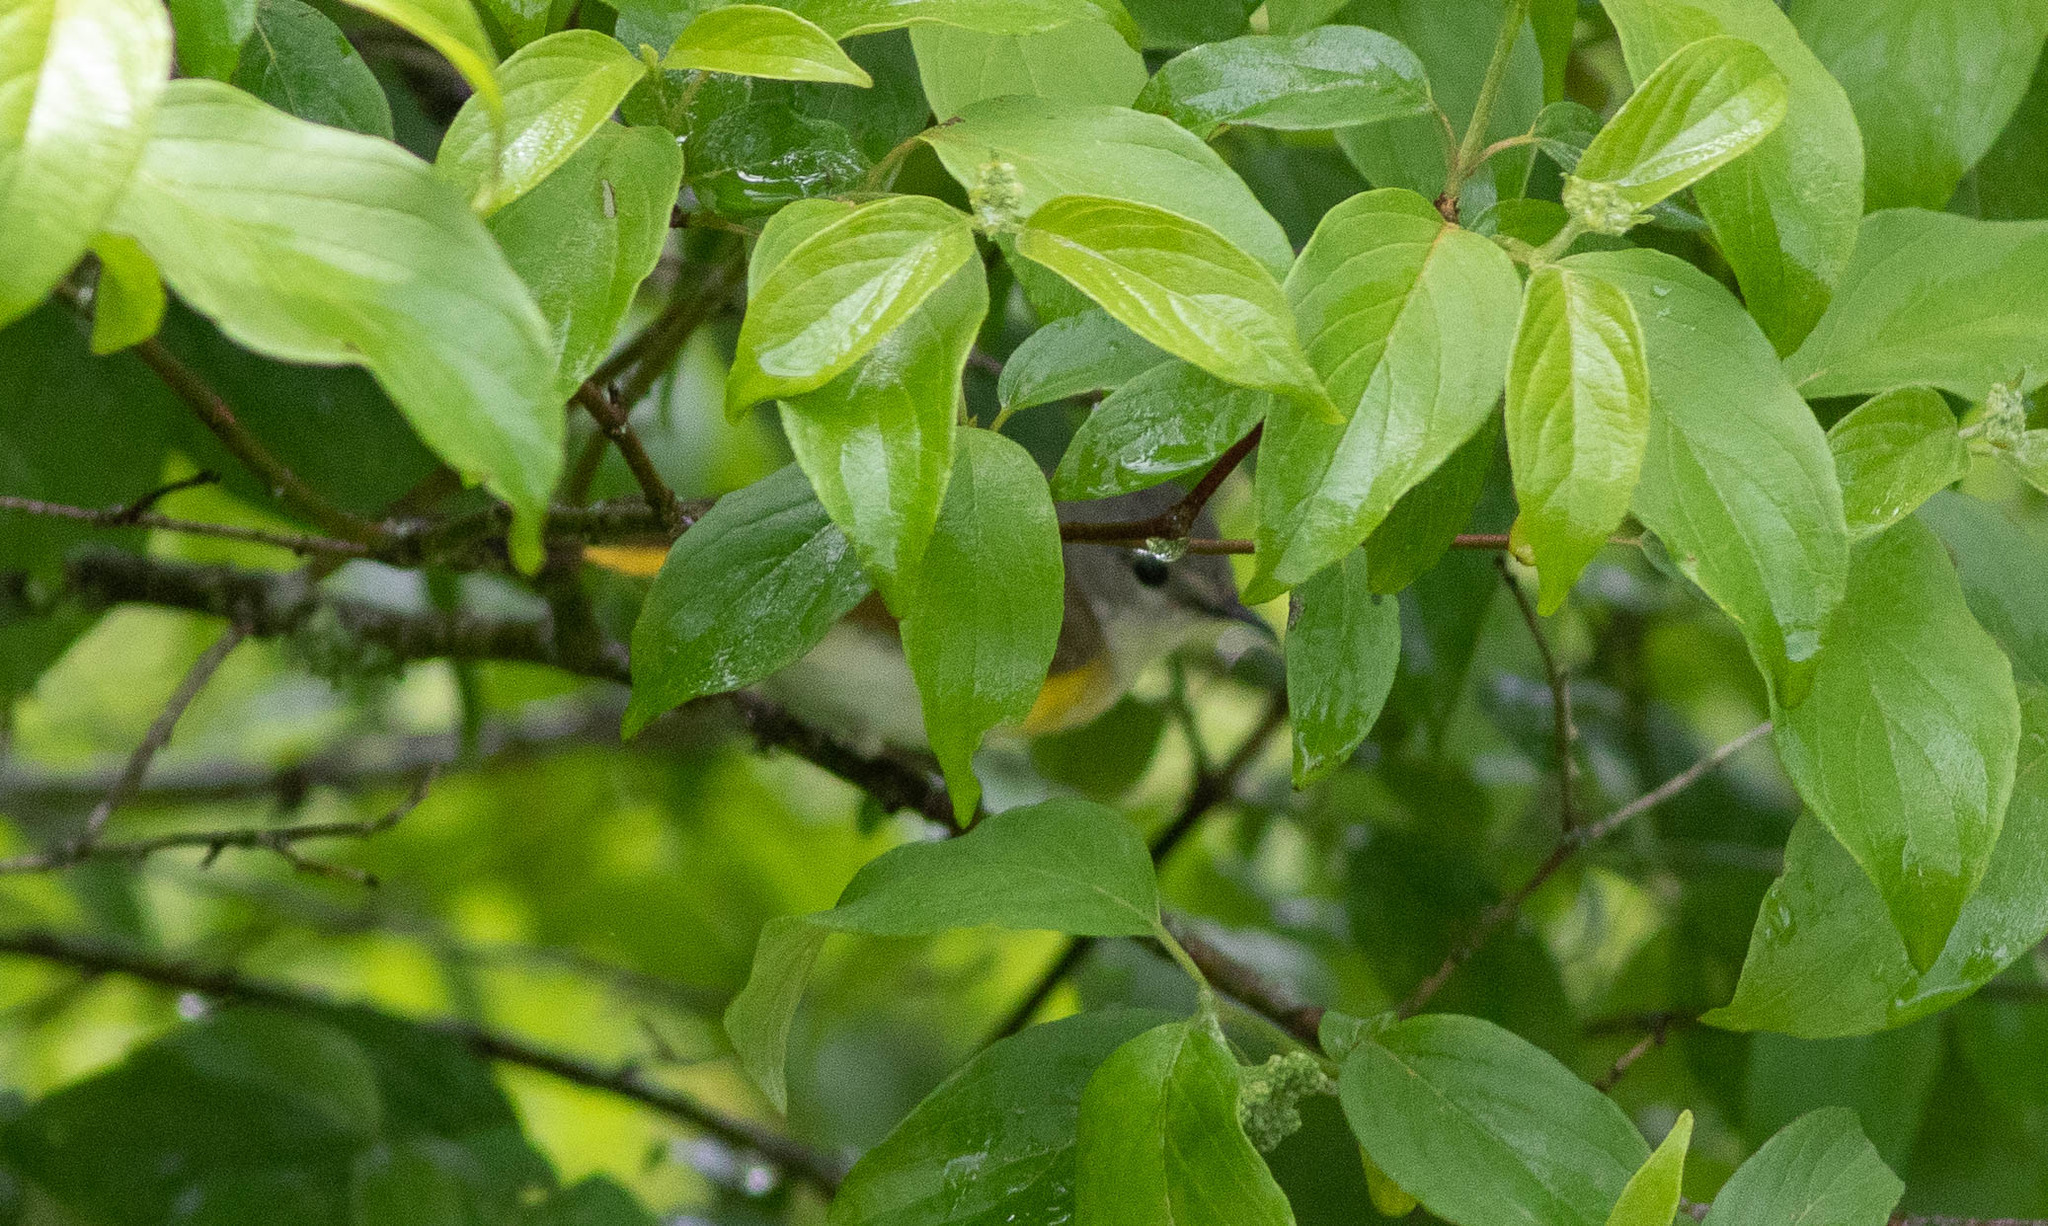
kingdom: Animalia
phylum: Chordata
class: Aves
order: Passeriformes
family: Parulidae
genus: Setophaga
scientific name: Setophaga ruticilla
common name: American redstart
